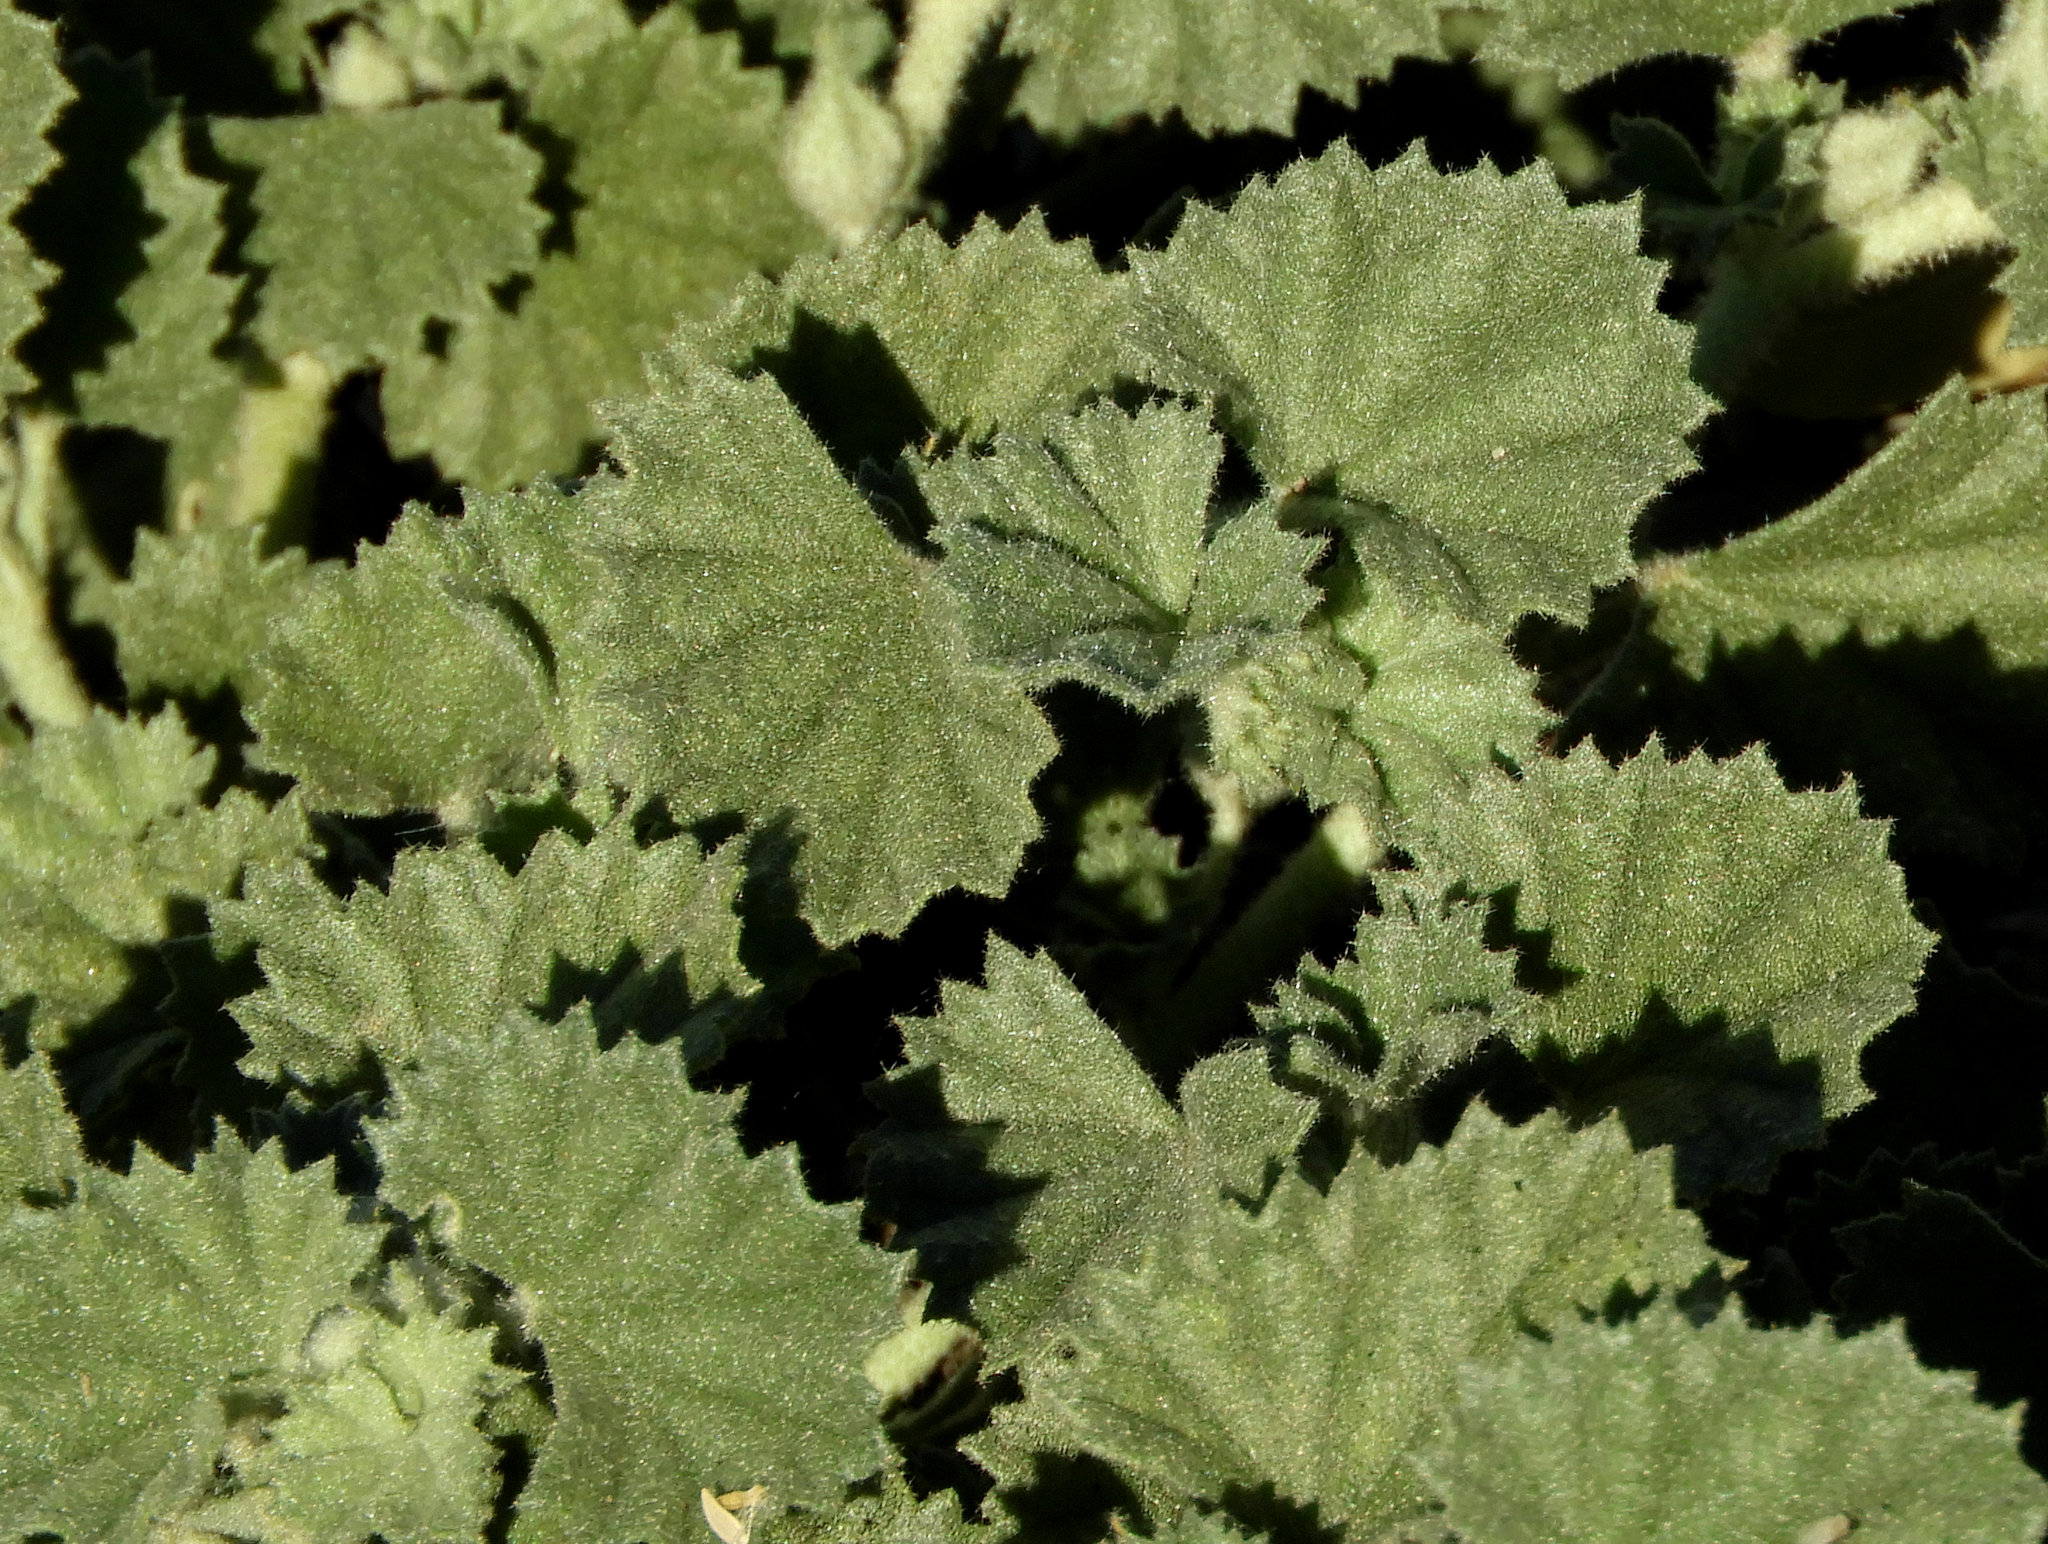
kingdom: Plantae
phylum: Tracheophyta
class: Magnoliopsida
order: Malvales
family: Malvaceae
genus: Malvella
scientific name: Malvella leprosa
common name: Alkali-mallow
